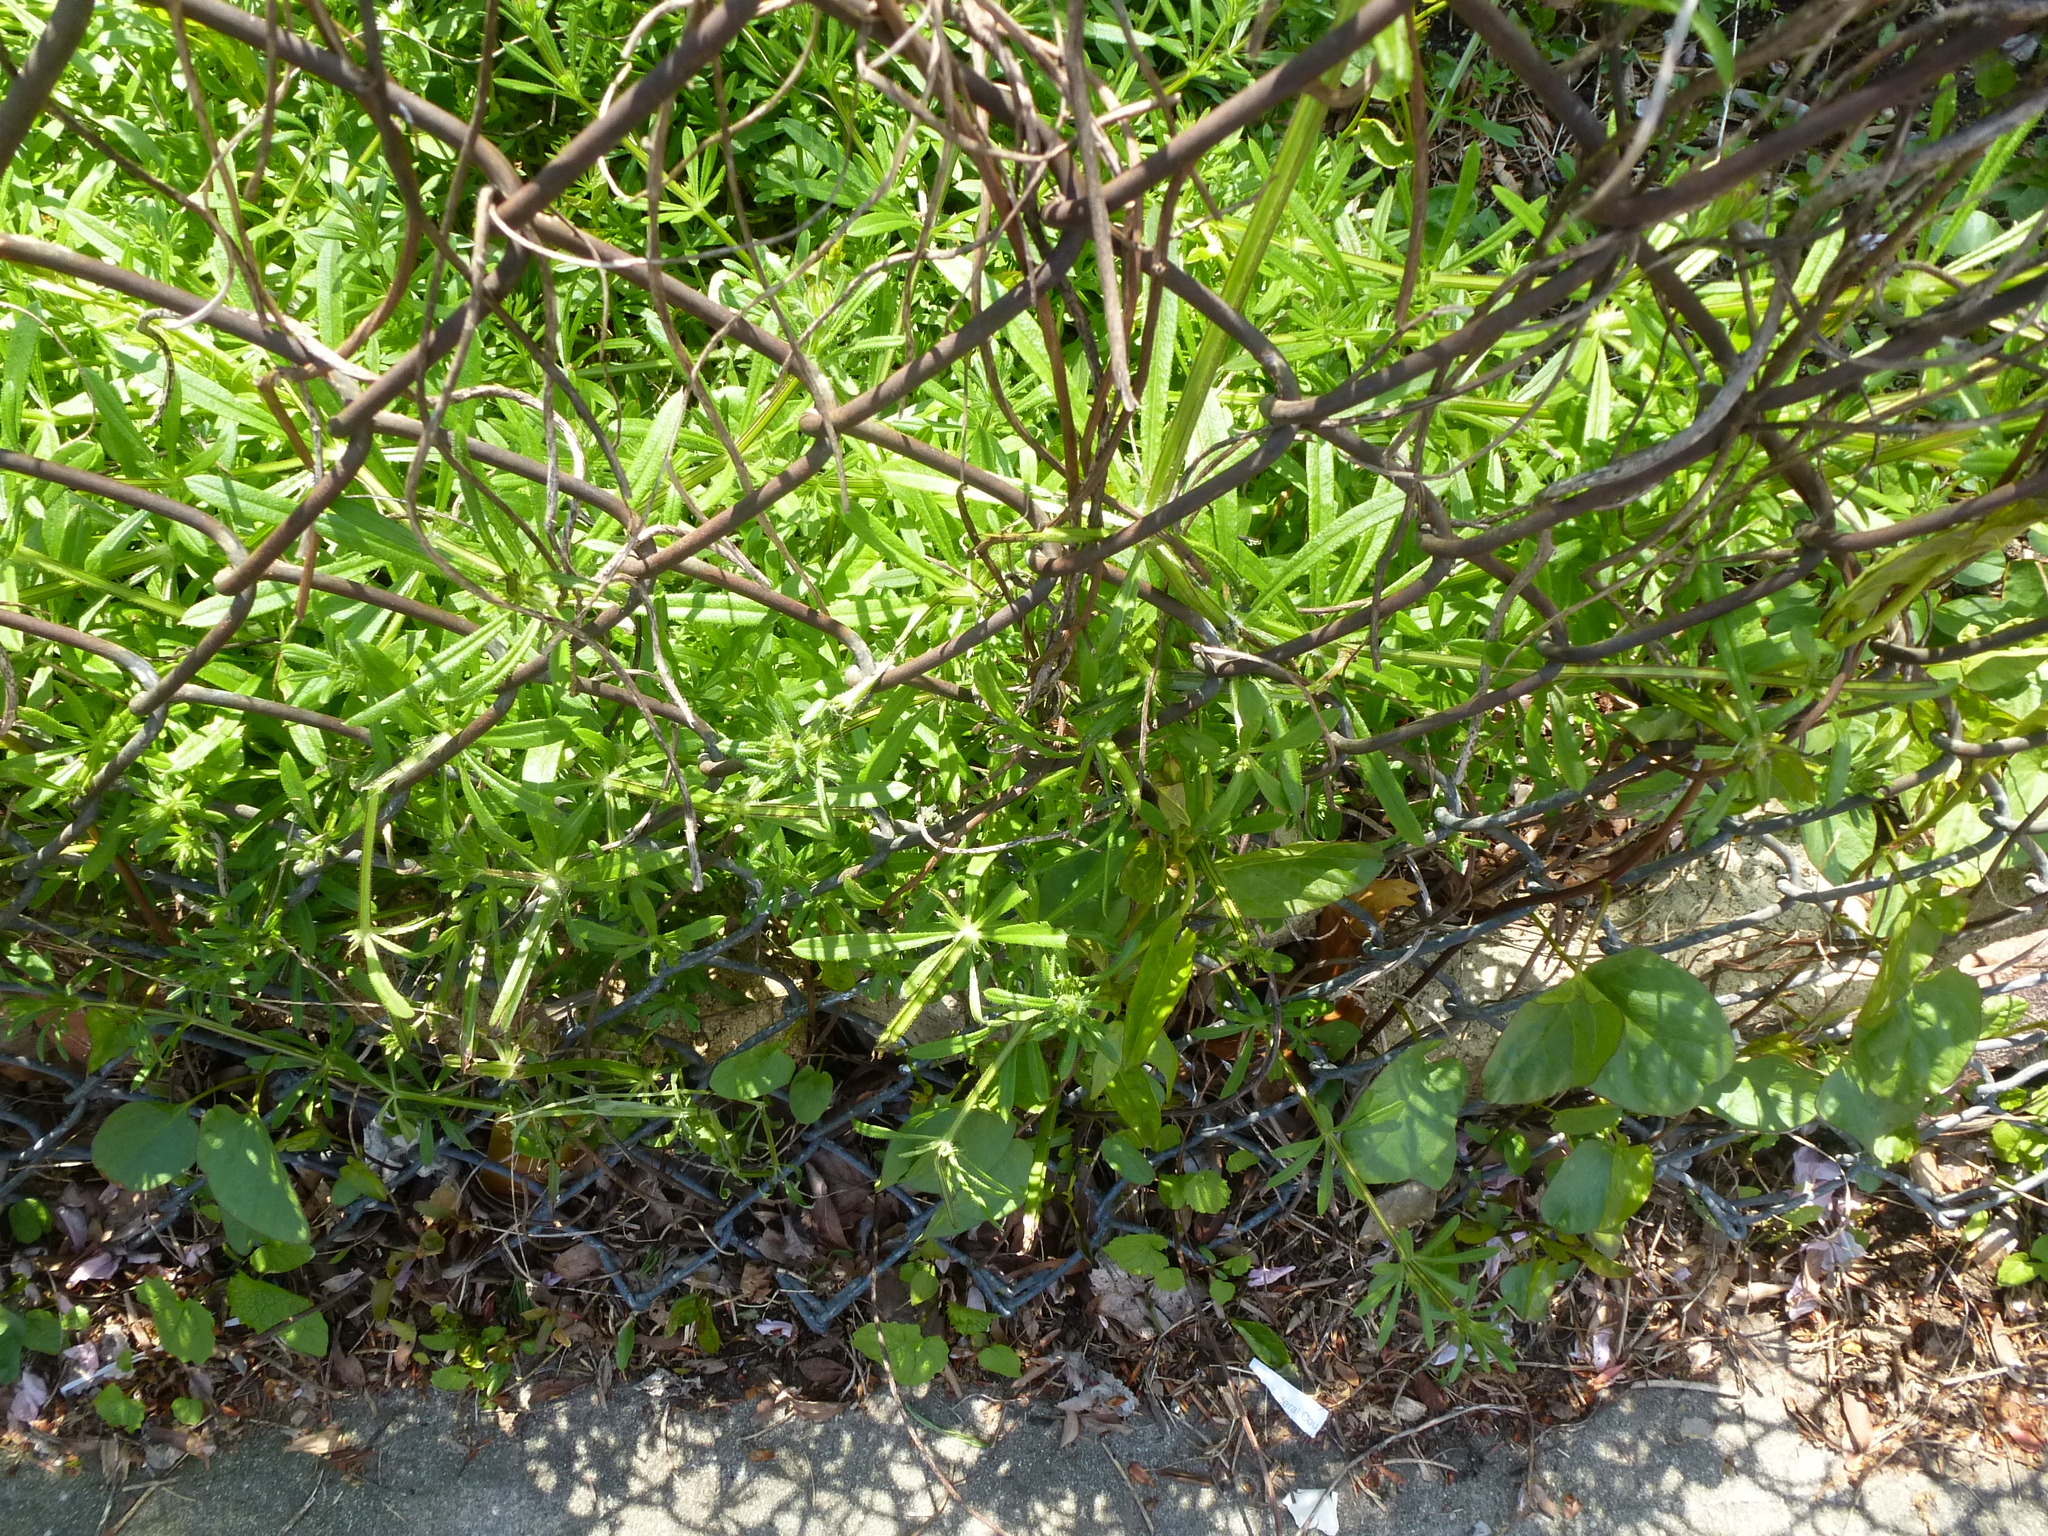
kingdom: Plantae
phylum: Tracheophyta
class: Magnoliopsida
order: Gentianales
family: Rubiaceae
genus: Galium
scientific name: Galium aparine
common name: Cleavers
